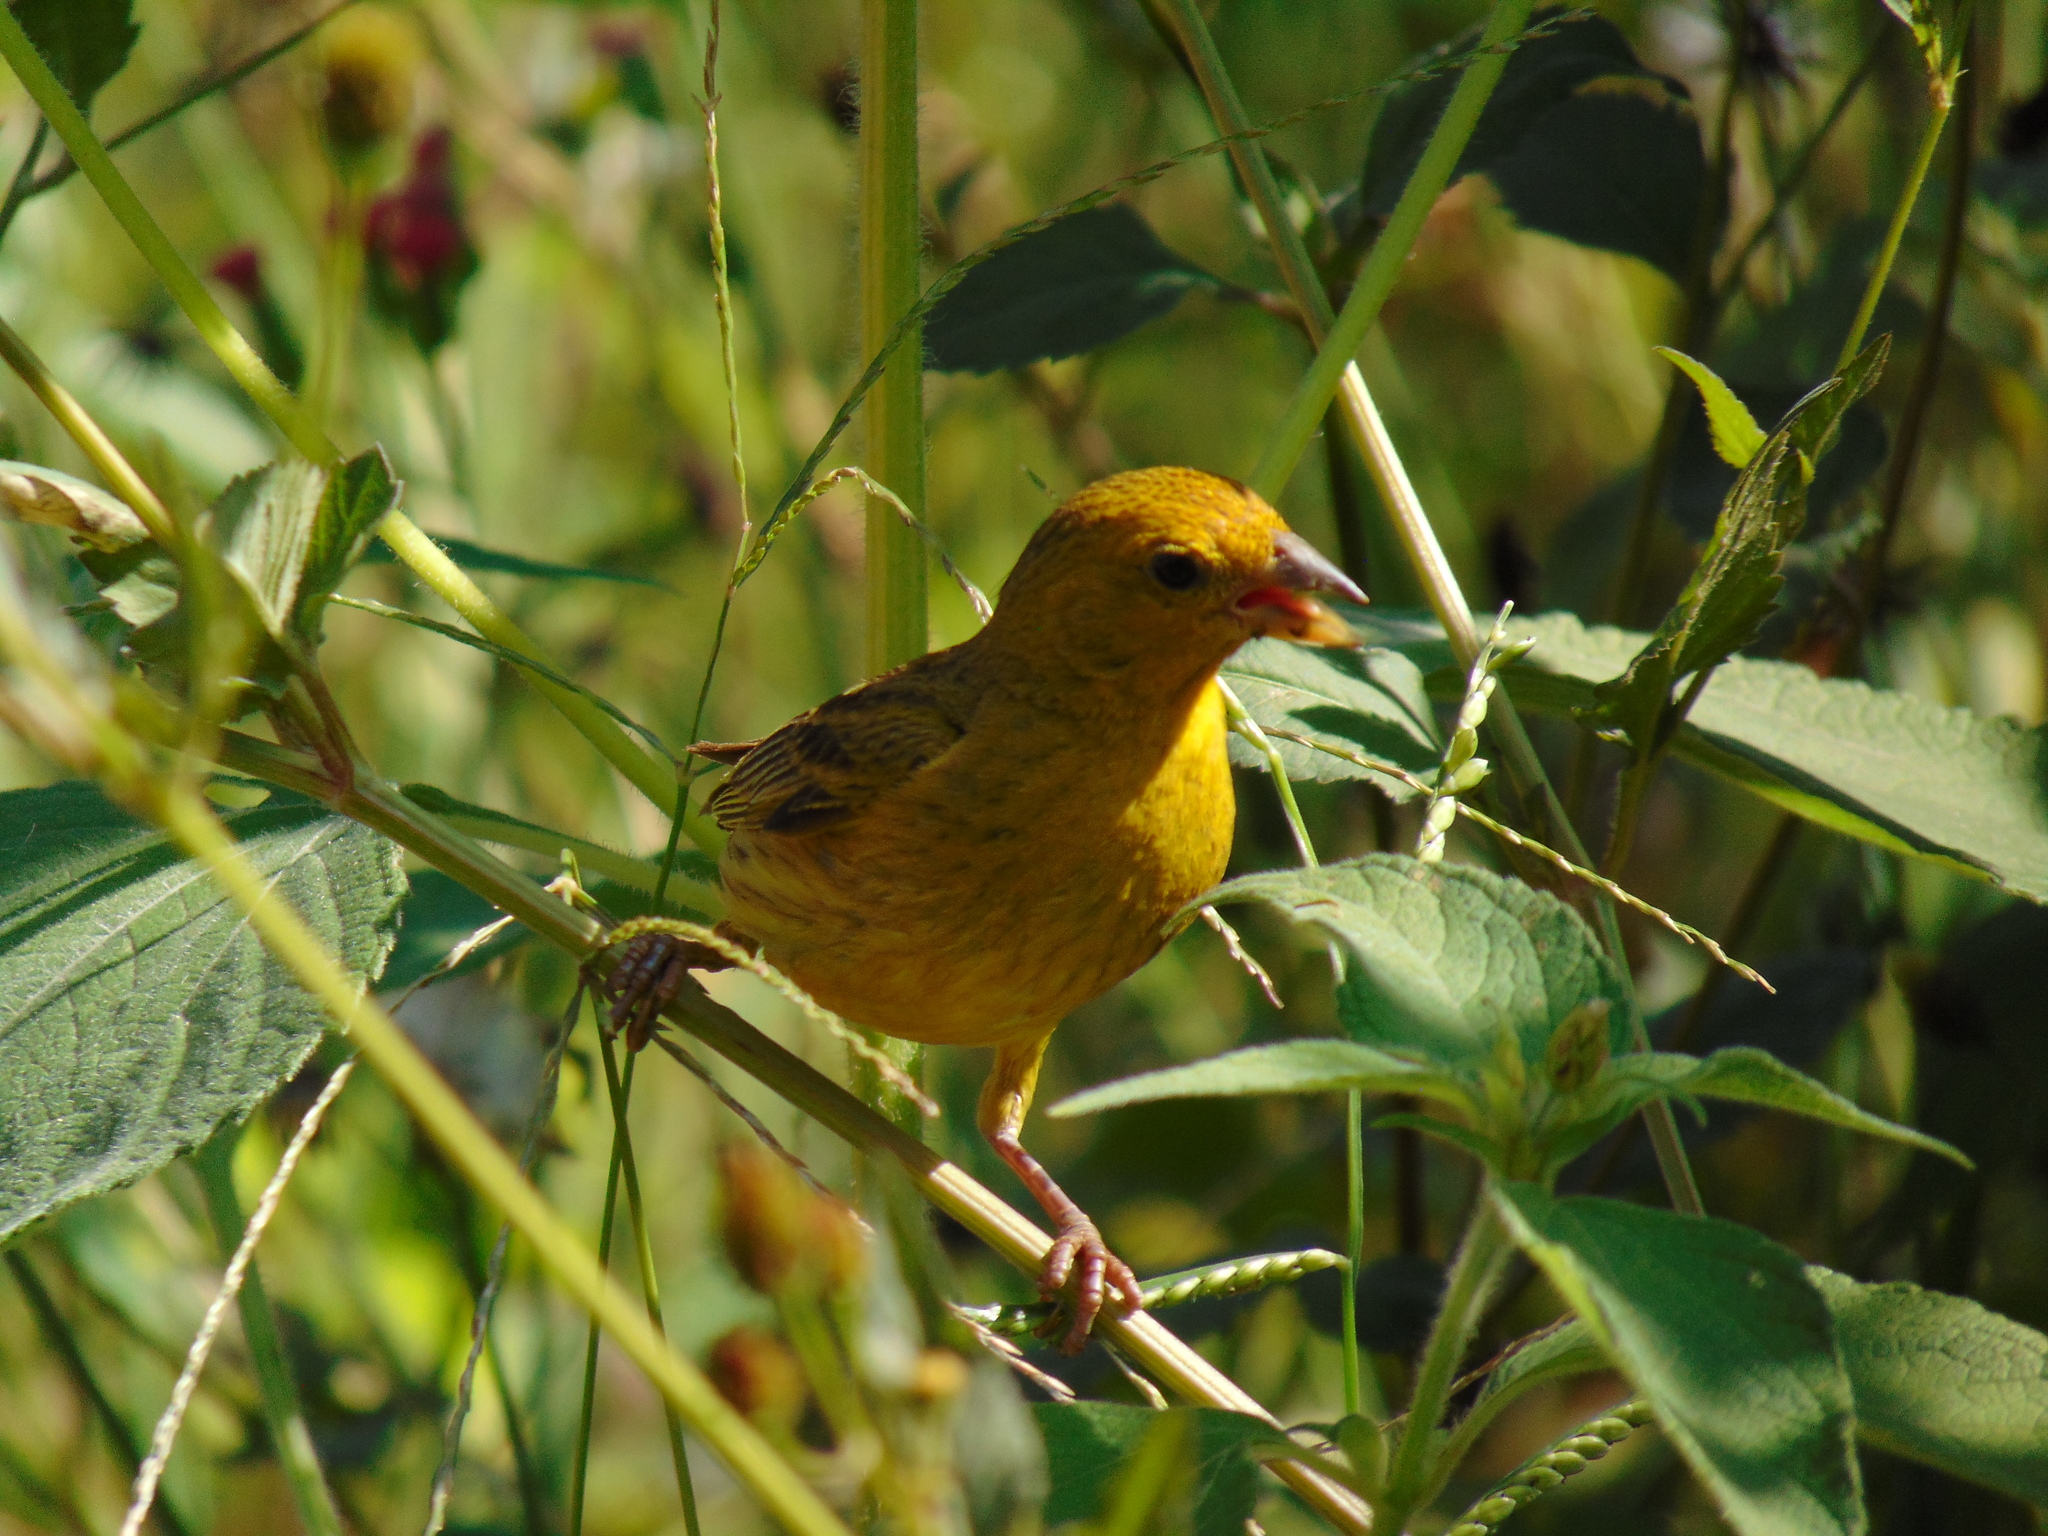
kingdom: Animalia
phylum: Chordata
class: Aves
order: Passeriformes
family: Thraupidae
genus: Sicalis
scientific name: Sicalis flaveola
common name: Saffron finch
